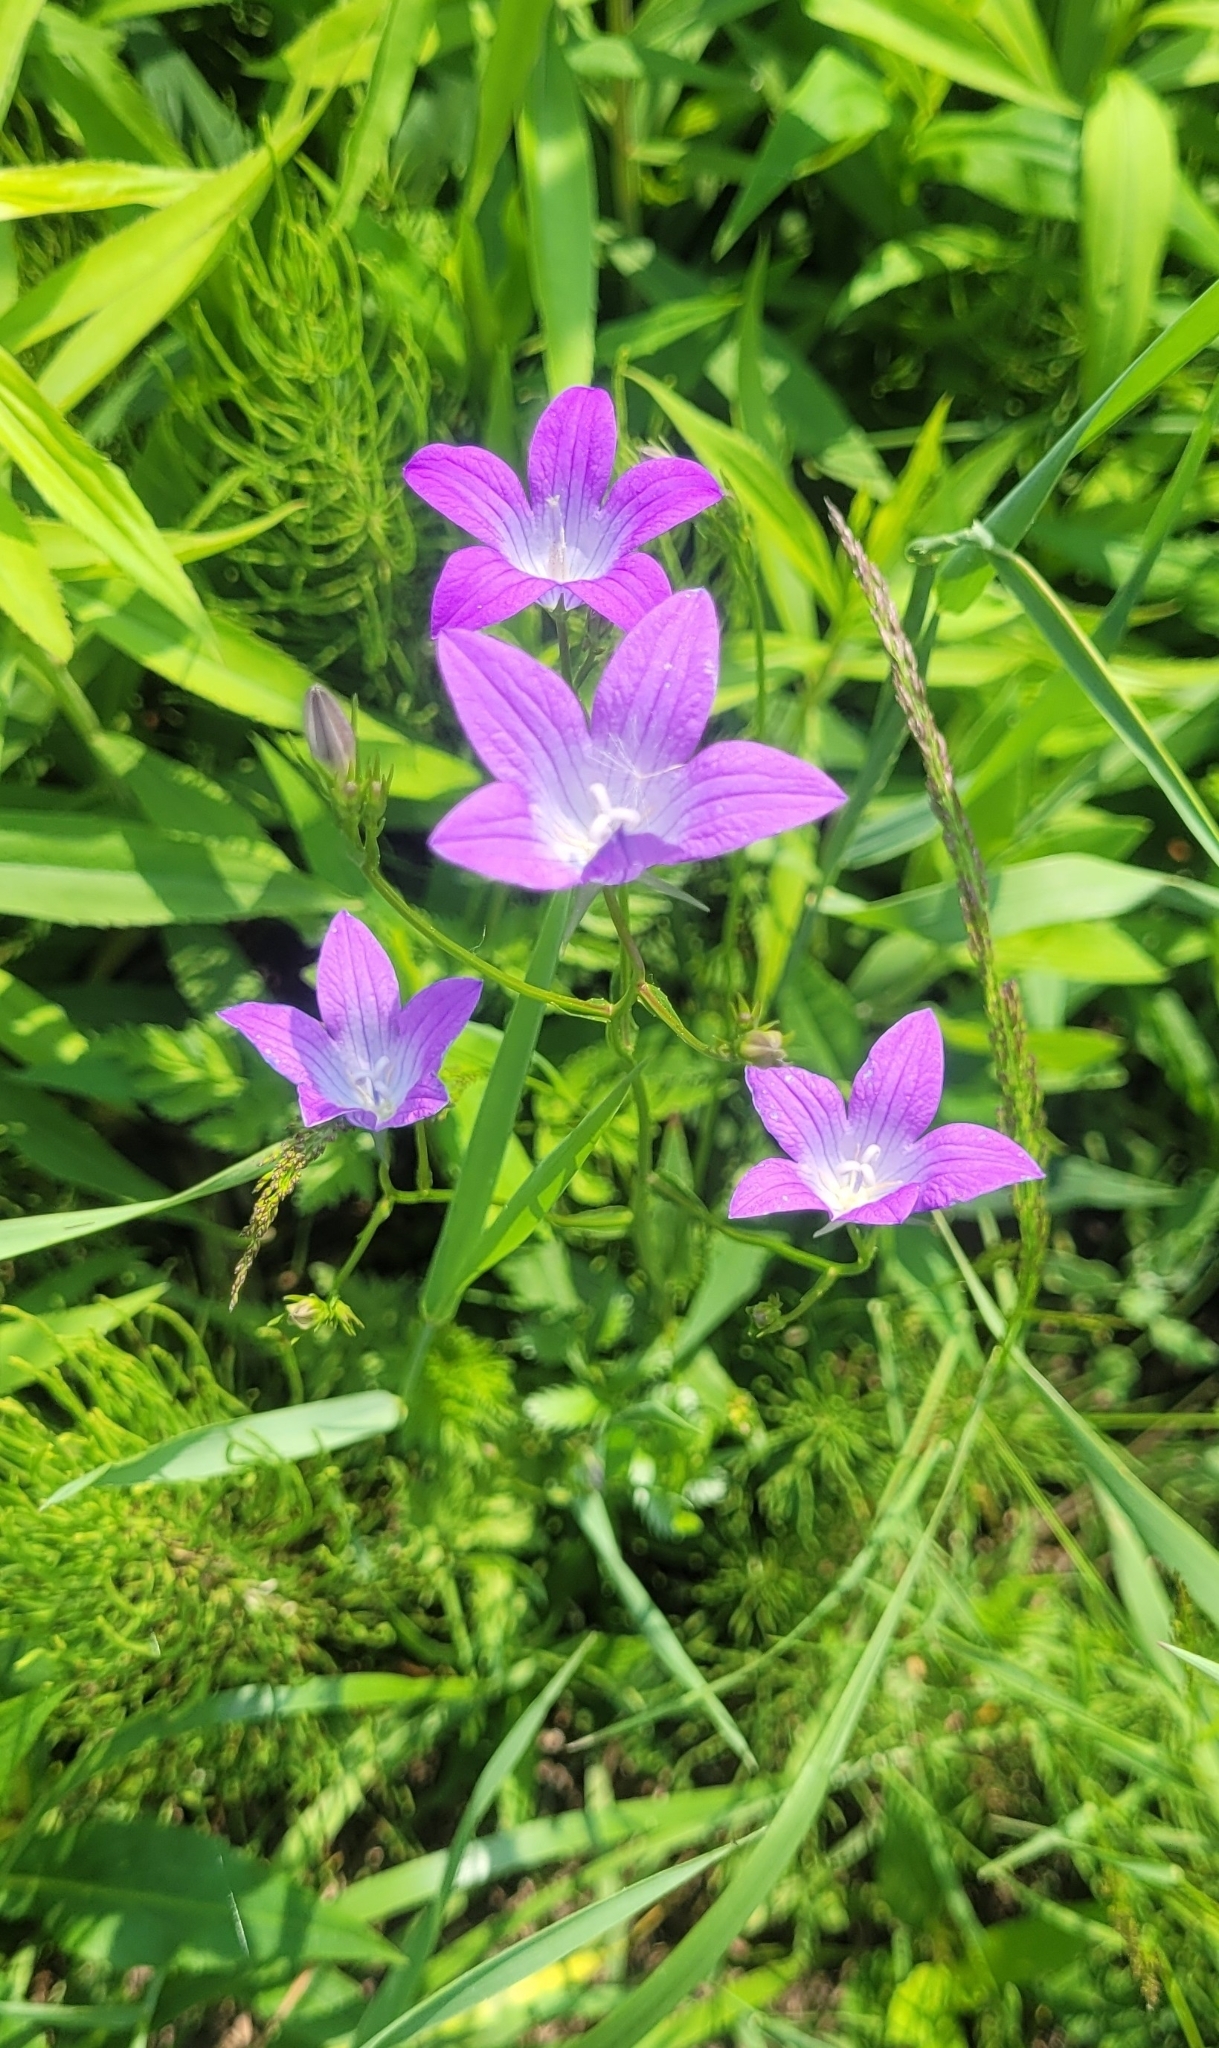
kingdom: Plantae
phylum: Tracheophyta
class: Magnoliopsida
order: Asterales
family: Campanulaceae
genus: Campanula
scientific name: Campanula patula
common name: Spreading bellflower
